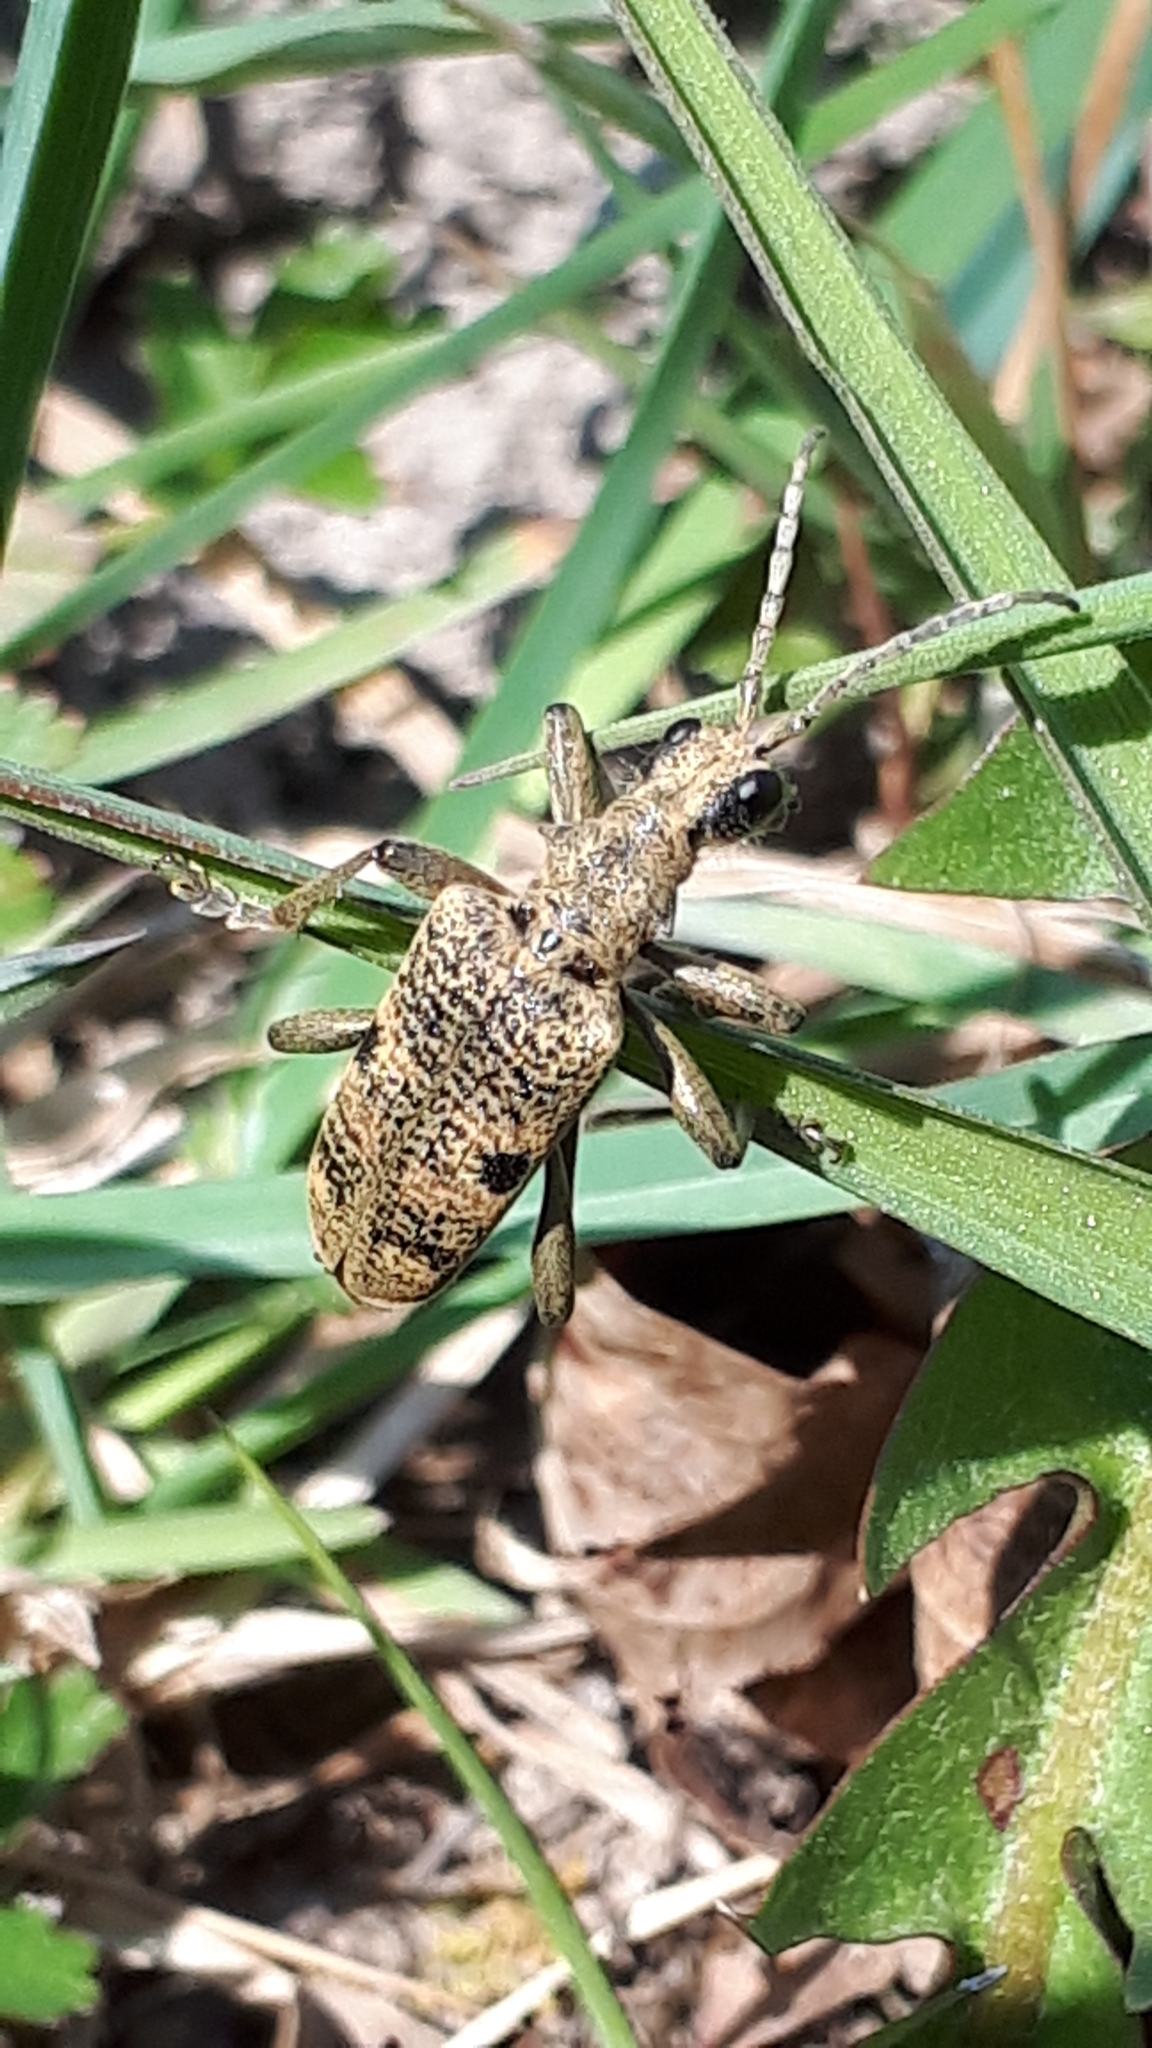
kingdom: Animalia
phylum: Arthropoda
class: Insecta
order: Coleoptera
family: Cerambycidae
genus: Rhagium
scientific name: Rhagium mordax
